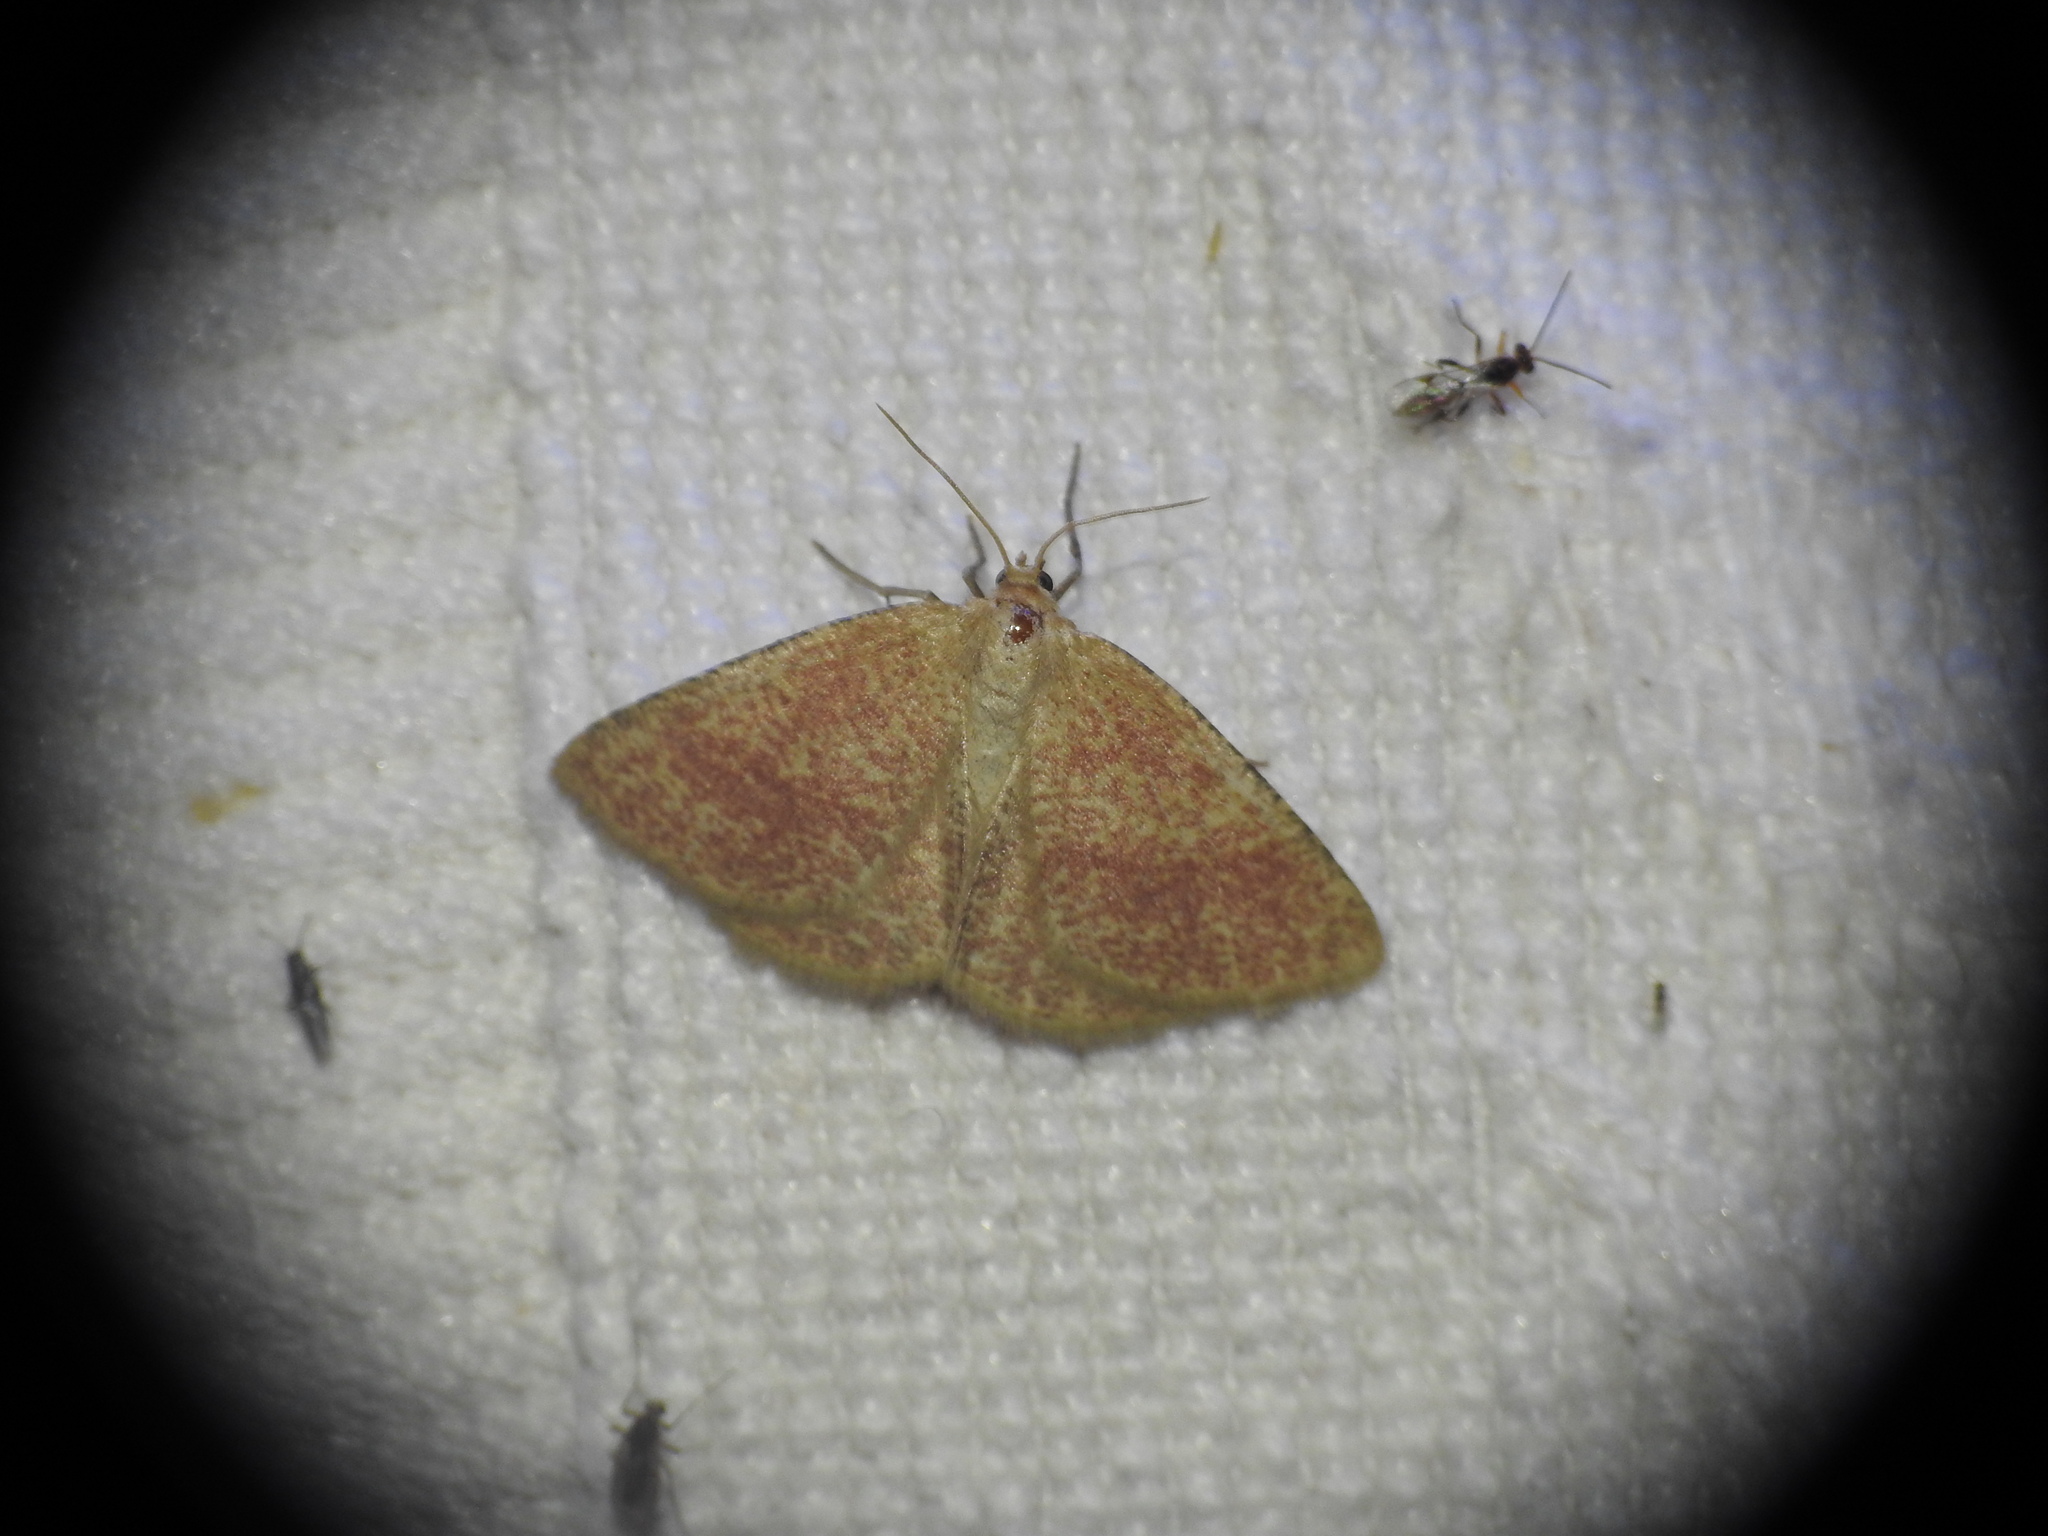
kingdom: Animalia
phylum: Arthropoda
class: Insecta
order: Lepidoptera
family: Geometridae
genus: Aplasta
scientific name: Aplasta ononaria
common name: Rest harrow
